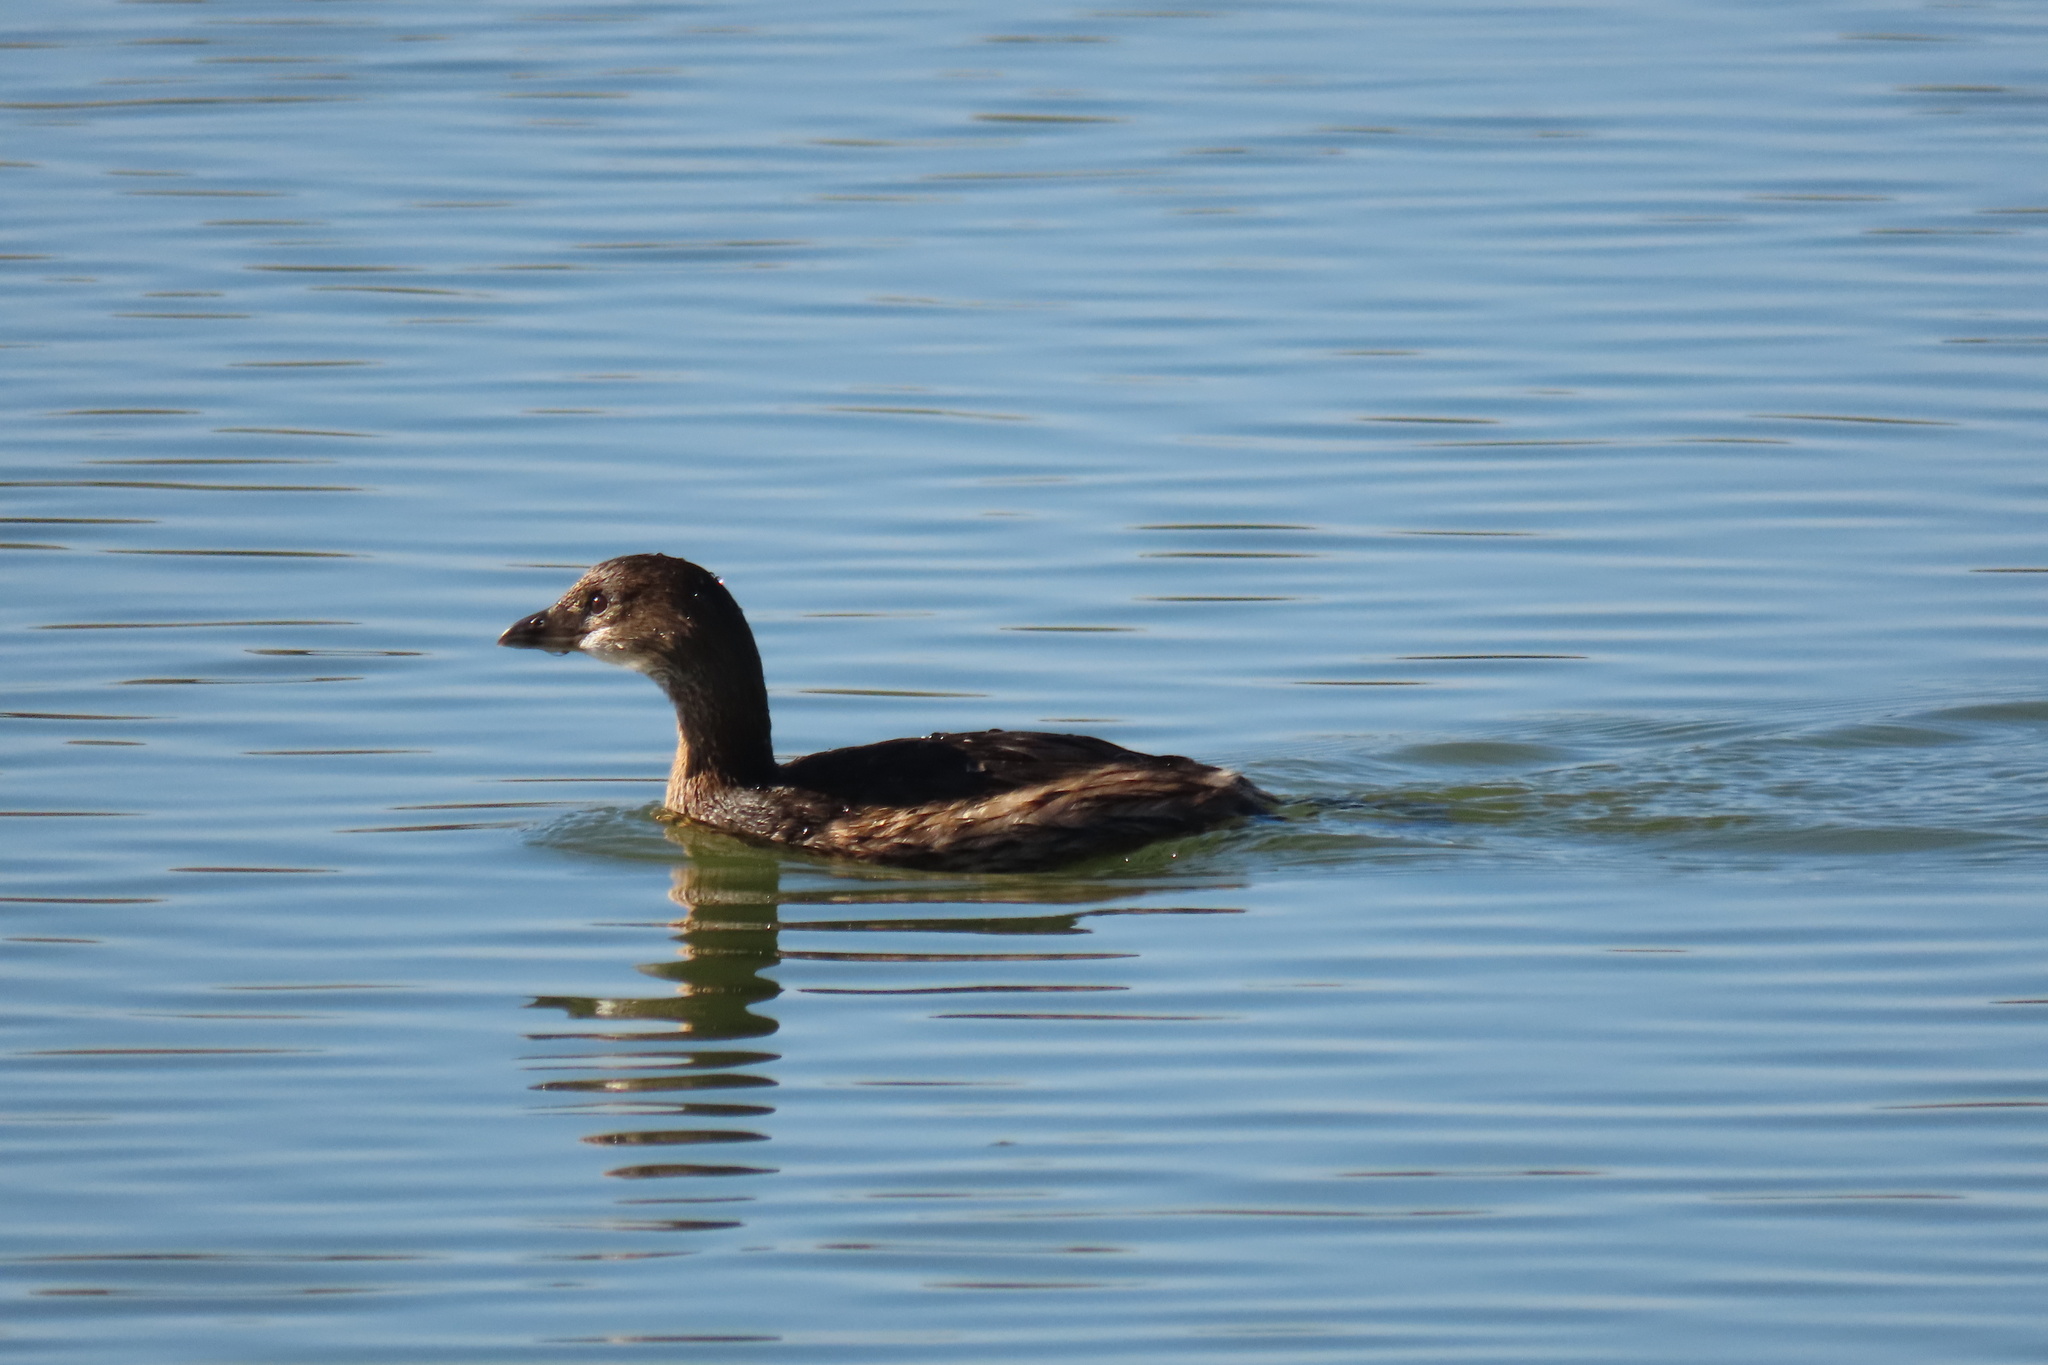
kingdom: Animalia
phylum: Chordata
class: Aves
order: Podicipediformes
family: Podicipedidae
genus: Podilymbus
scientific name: Podilymbus podiceps
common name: Pied-billed grebe
